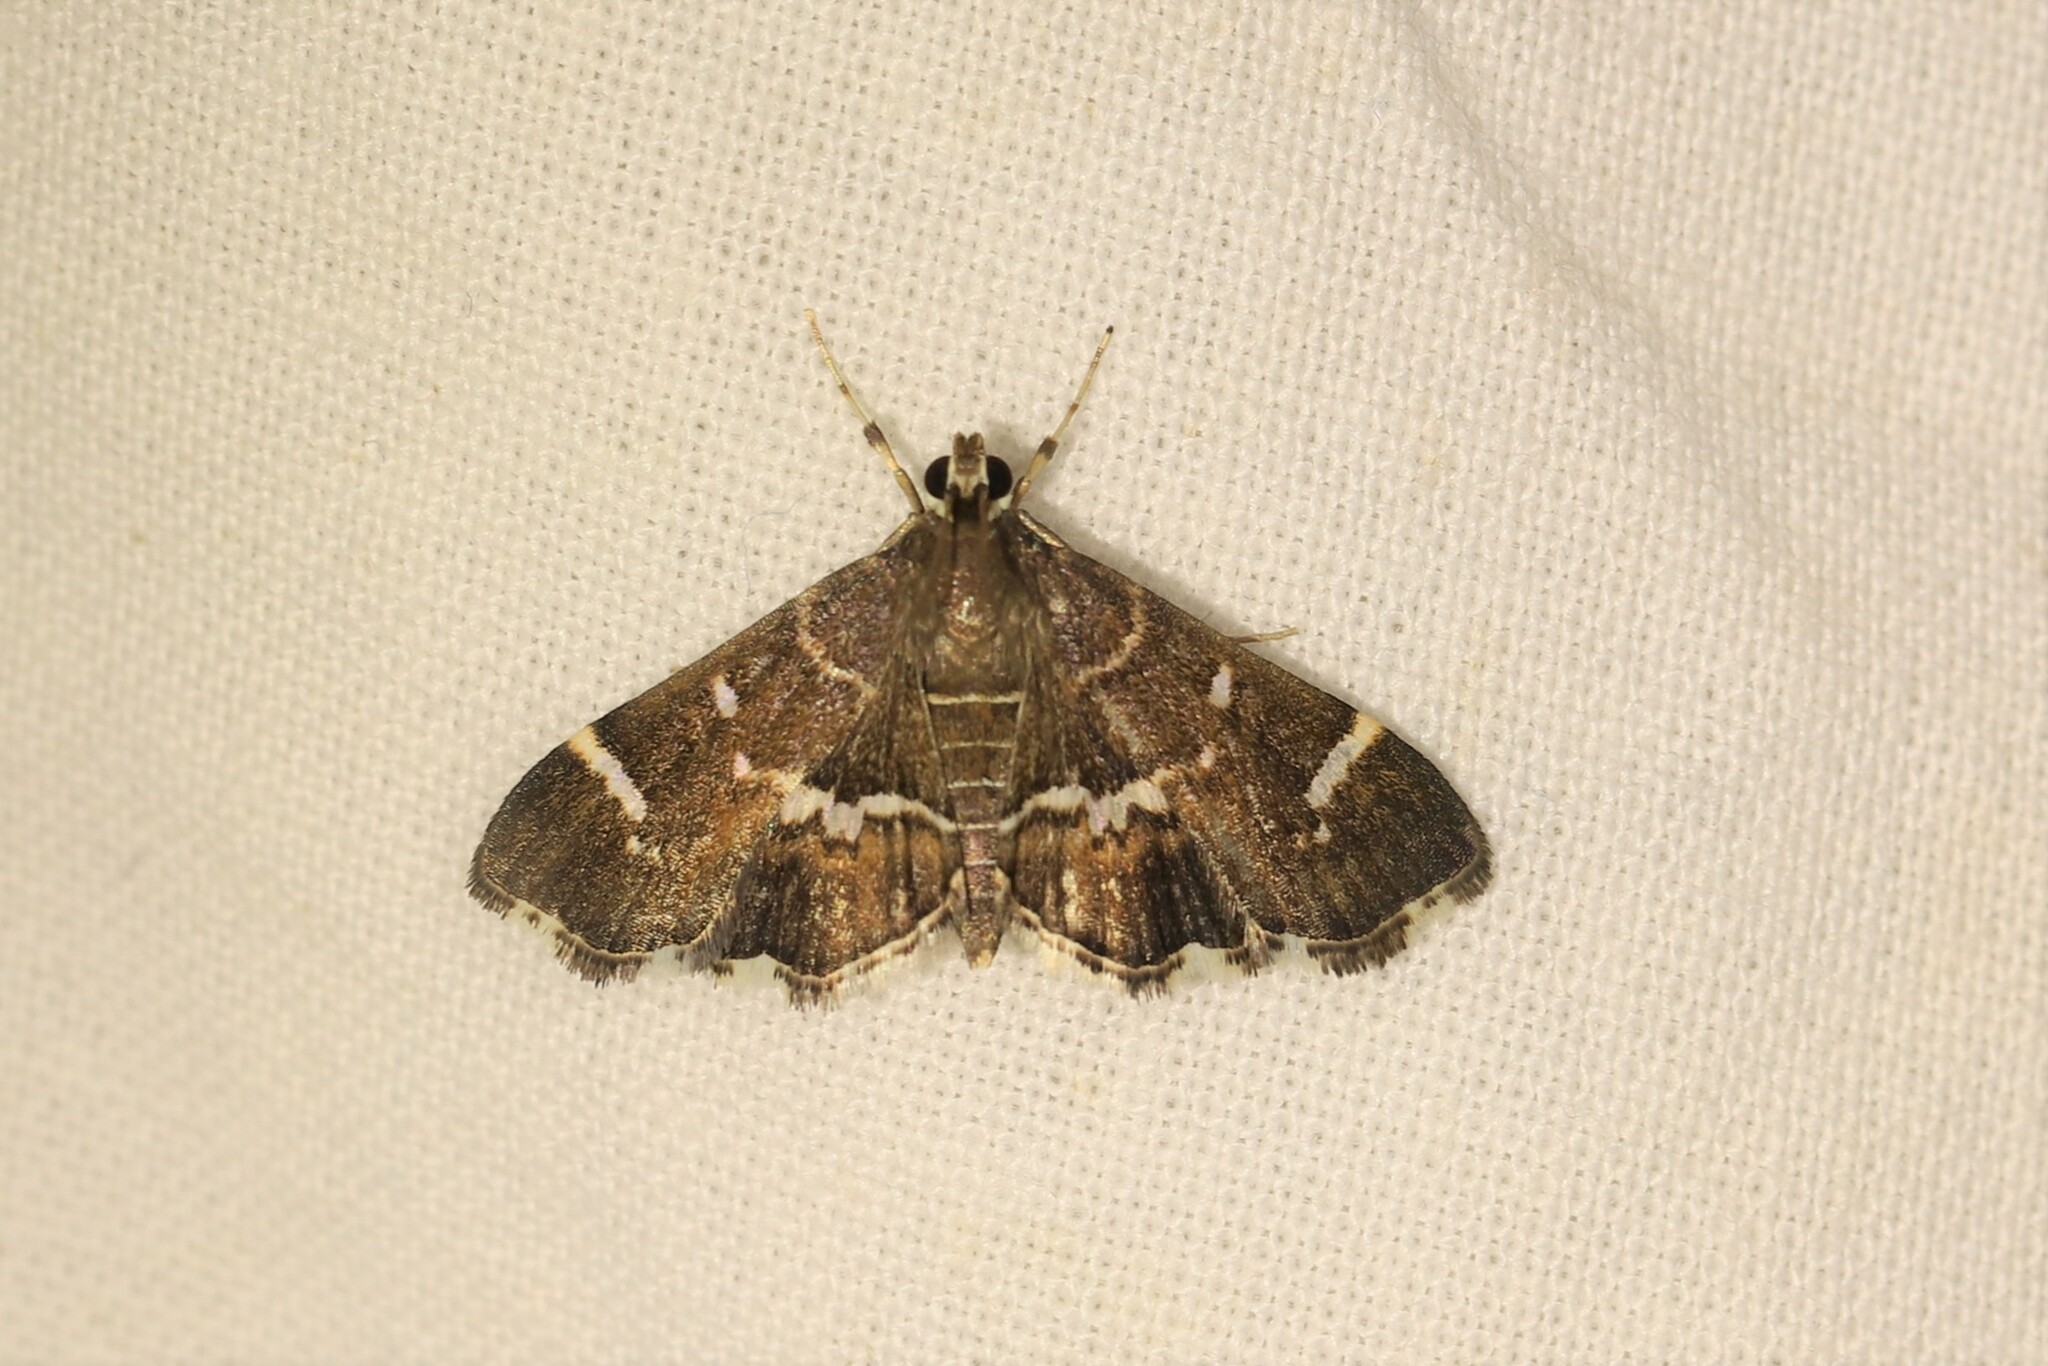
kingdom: Animalia
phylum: Arthropoda
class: Insecta
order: Lepidoptera
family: Crambidae
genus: Hymenia
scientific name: Hymenia perspectalis
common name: Spotted beet webworm
